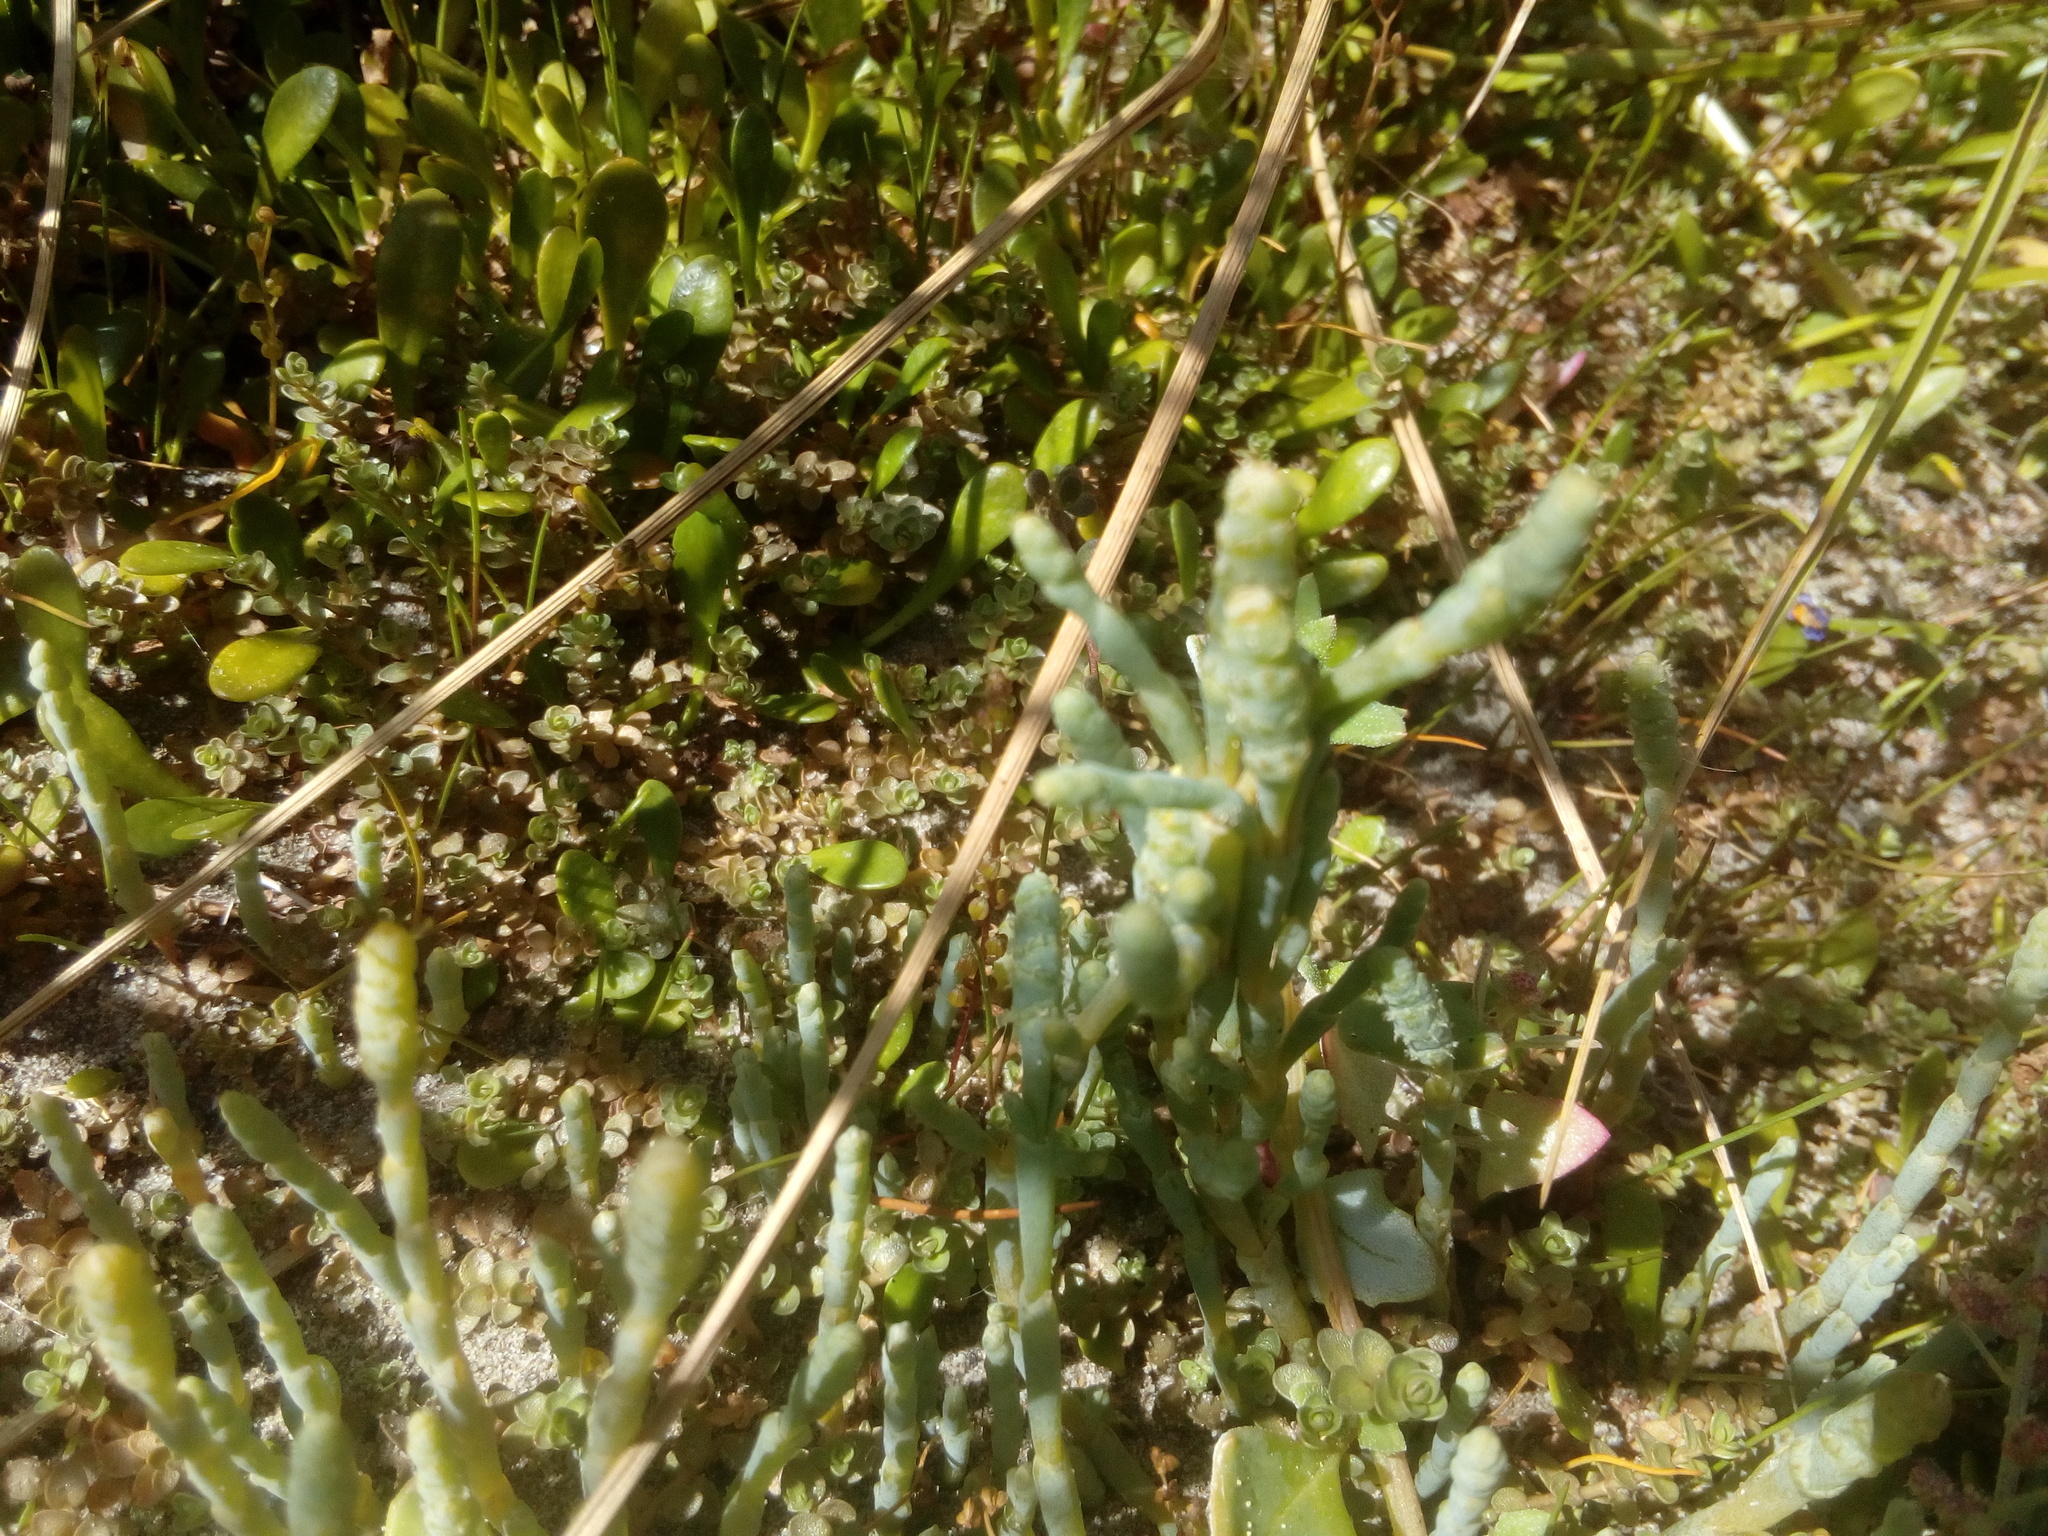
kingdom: Plantae
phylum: Tracheophyta
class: Magnoliopsida
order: Caryophyllales
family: Amaranthaceae
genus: Salicornia
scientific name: Salicornia quinqueflora
